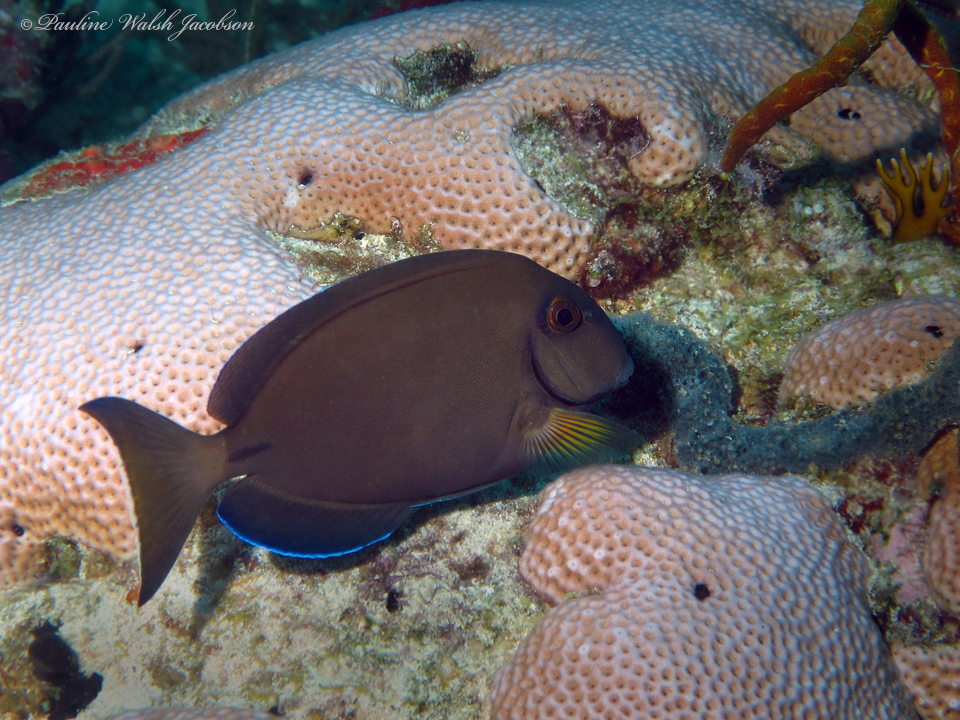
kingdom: Animalia
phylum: Chordata
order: Perciformes
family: Acanthuridae
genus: Acanthurus
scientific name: Acanthurus bahianus
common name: Ocean surgeon
